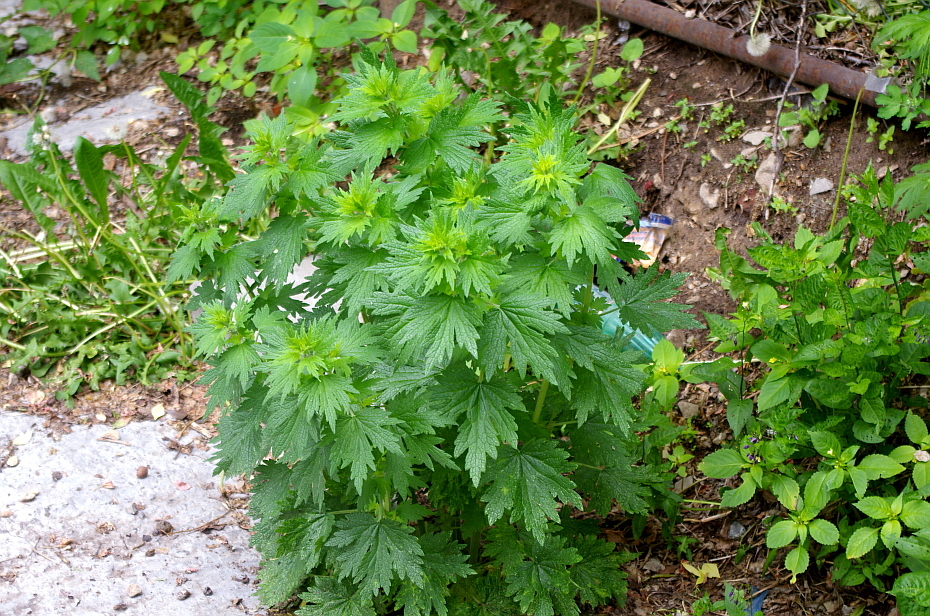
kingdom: Plantae
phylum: Tracheophyta
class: Magnoliopsida
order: Lamiales
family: Lamiaceae
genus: Leonurus
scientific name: Leonurus quinquelobatus
